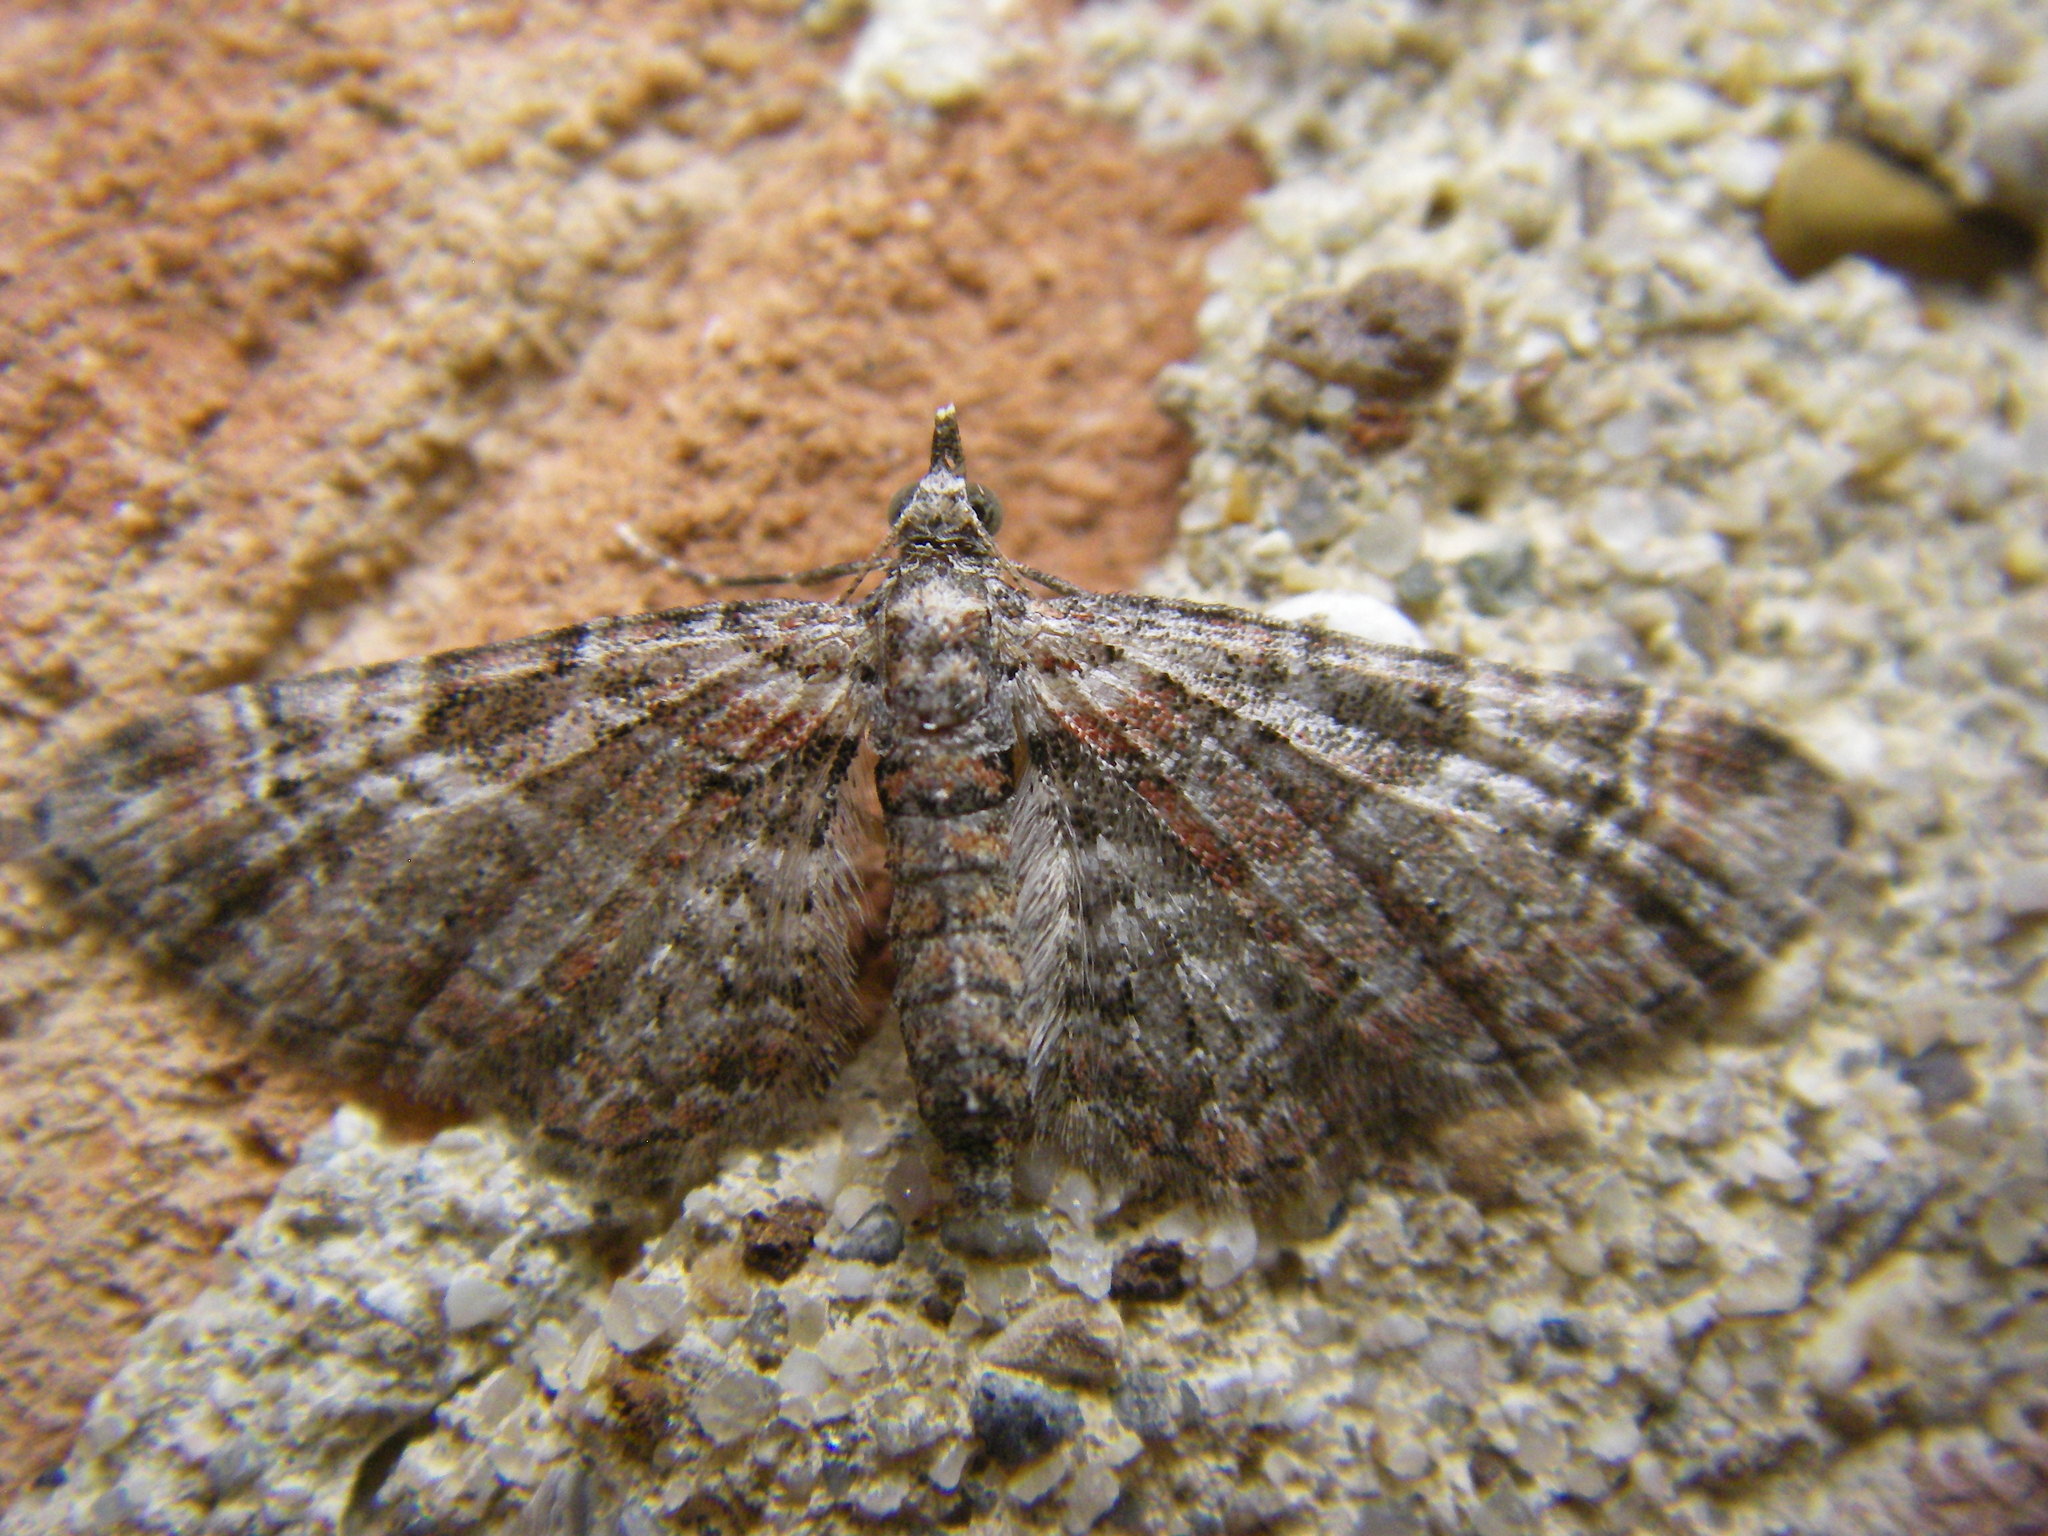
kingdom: Animalia
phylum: Arthropoda
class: Insecta
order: Lepidoptera
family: Geometridae
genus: Gymnoscelis
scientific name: Gymnoscelis rufifasciata
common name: Double-striped pug
